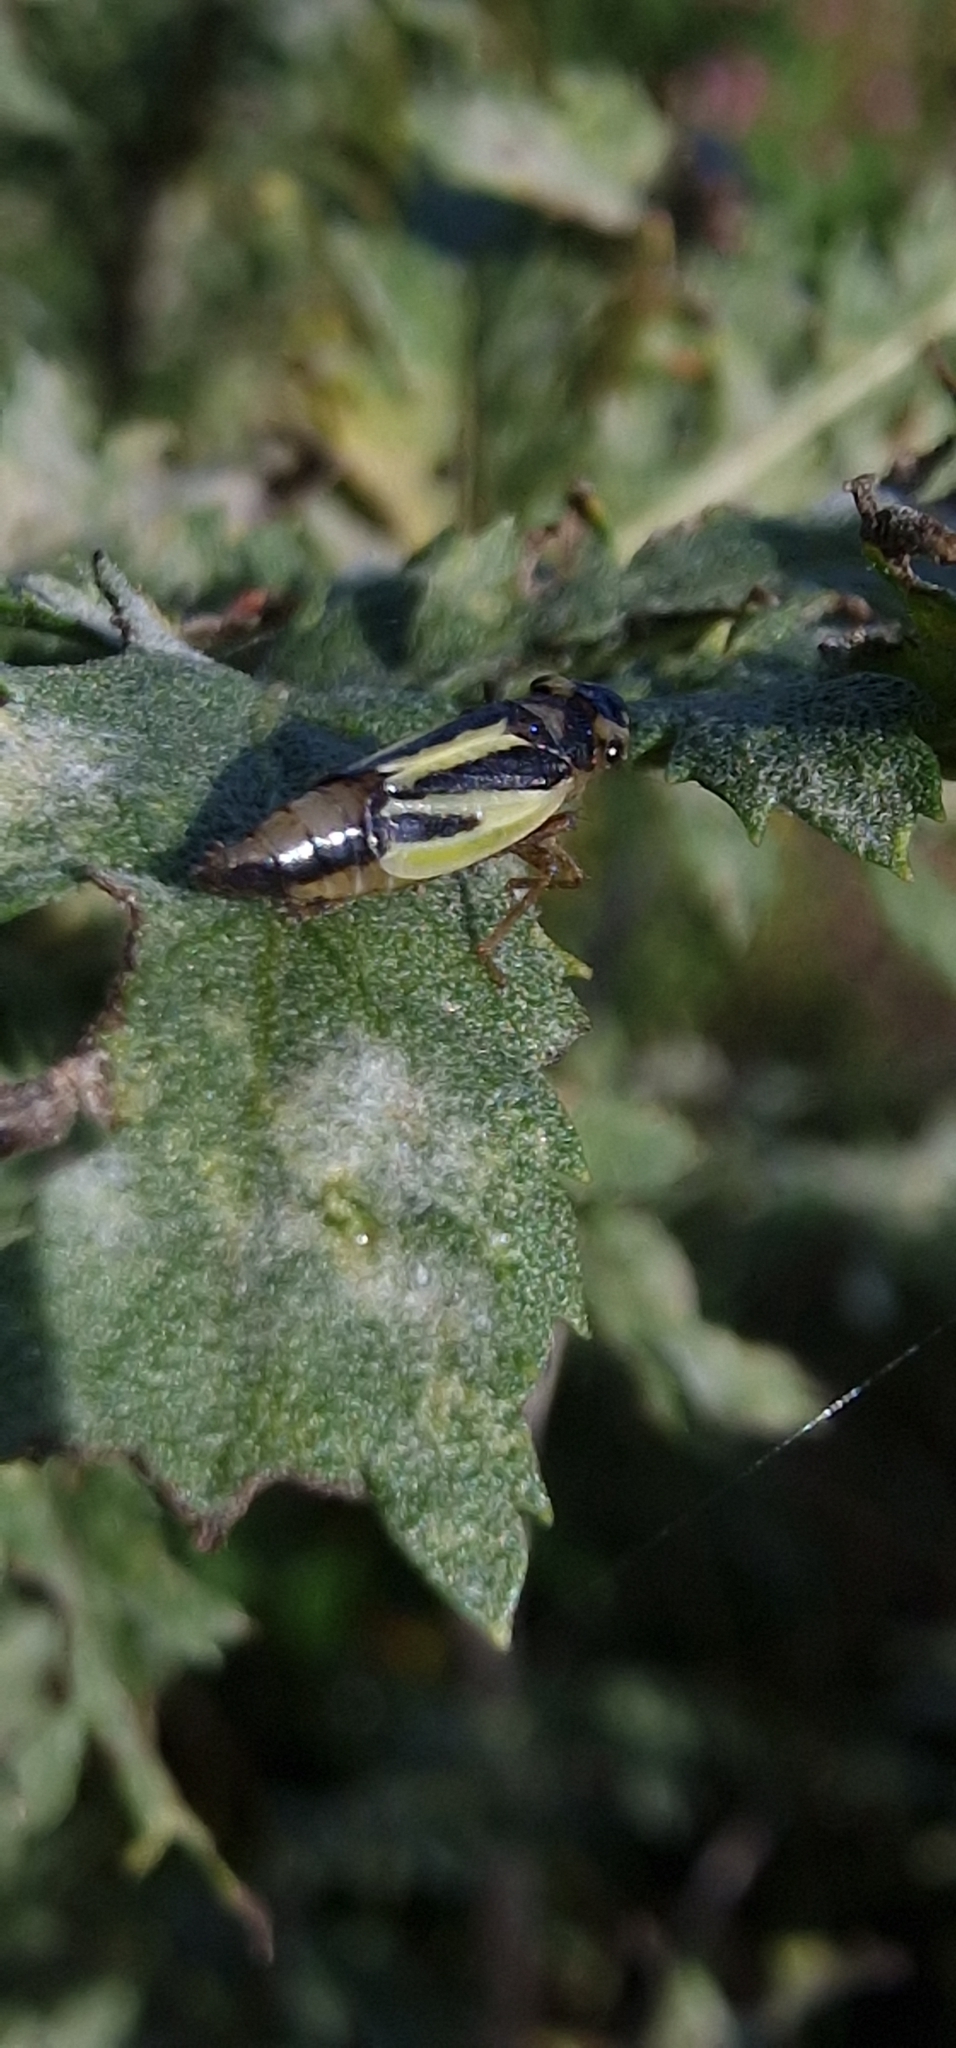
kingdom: Animalia
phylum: Arthropoda
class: Insecta
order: Hemiptera
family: Cicadellidae
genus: Evacanthus
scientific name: Evacanthus interruptus
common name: Leafhopper
